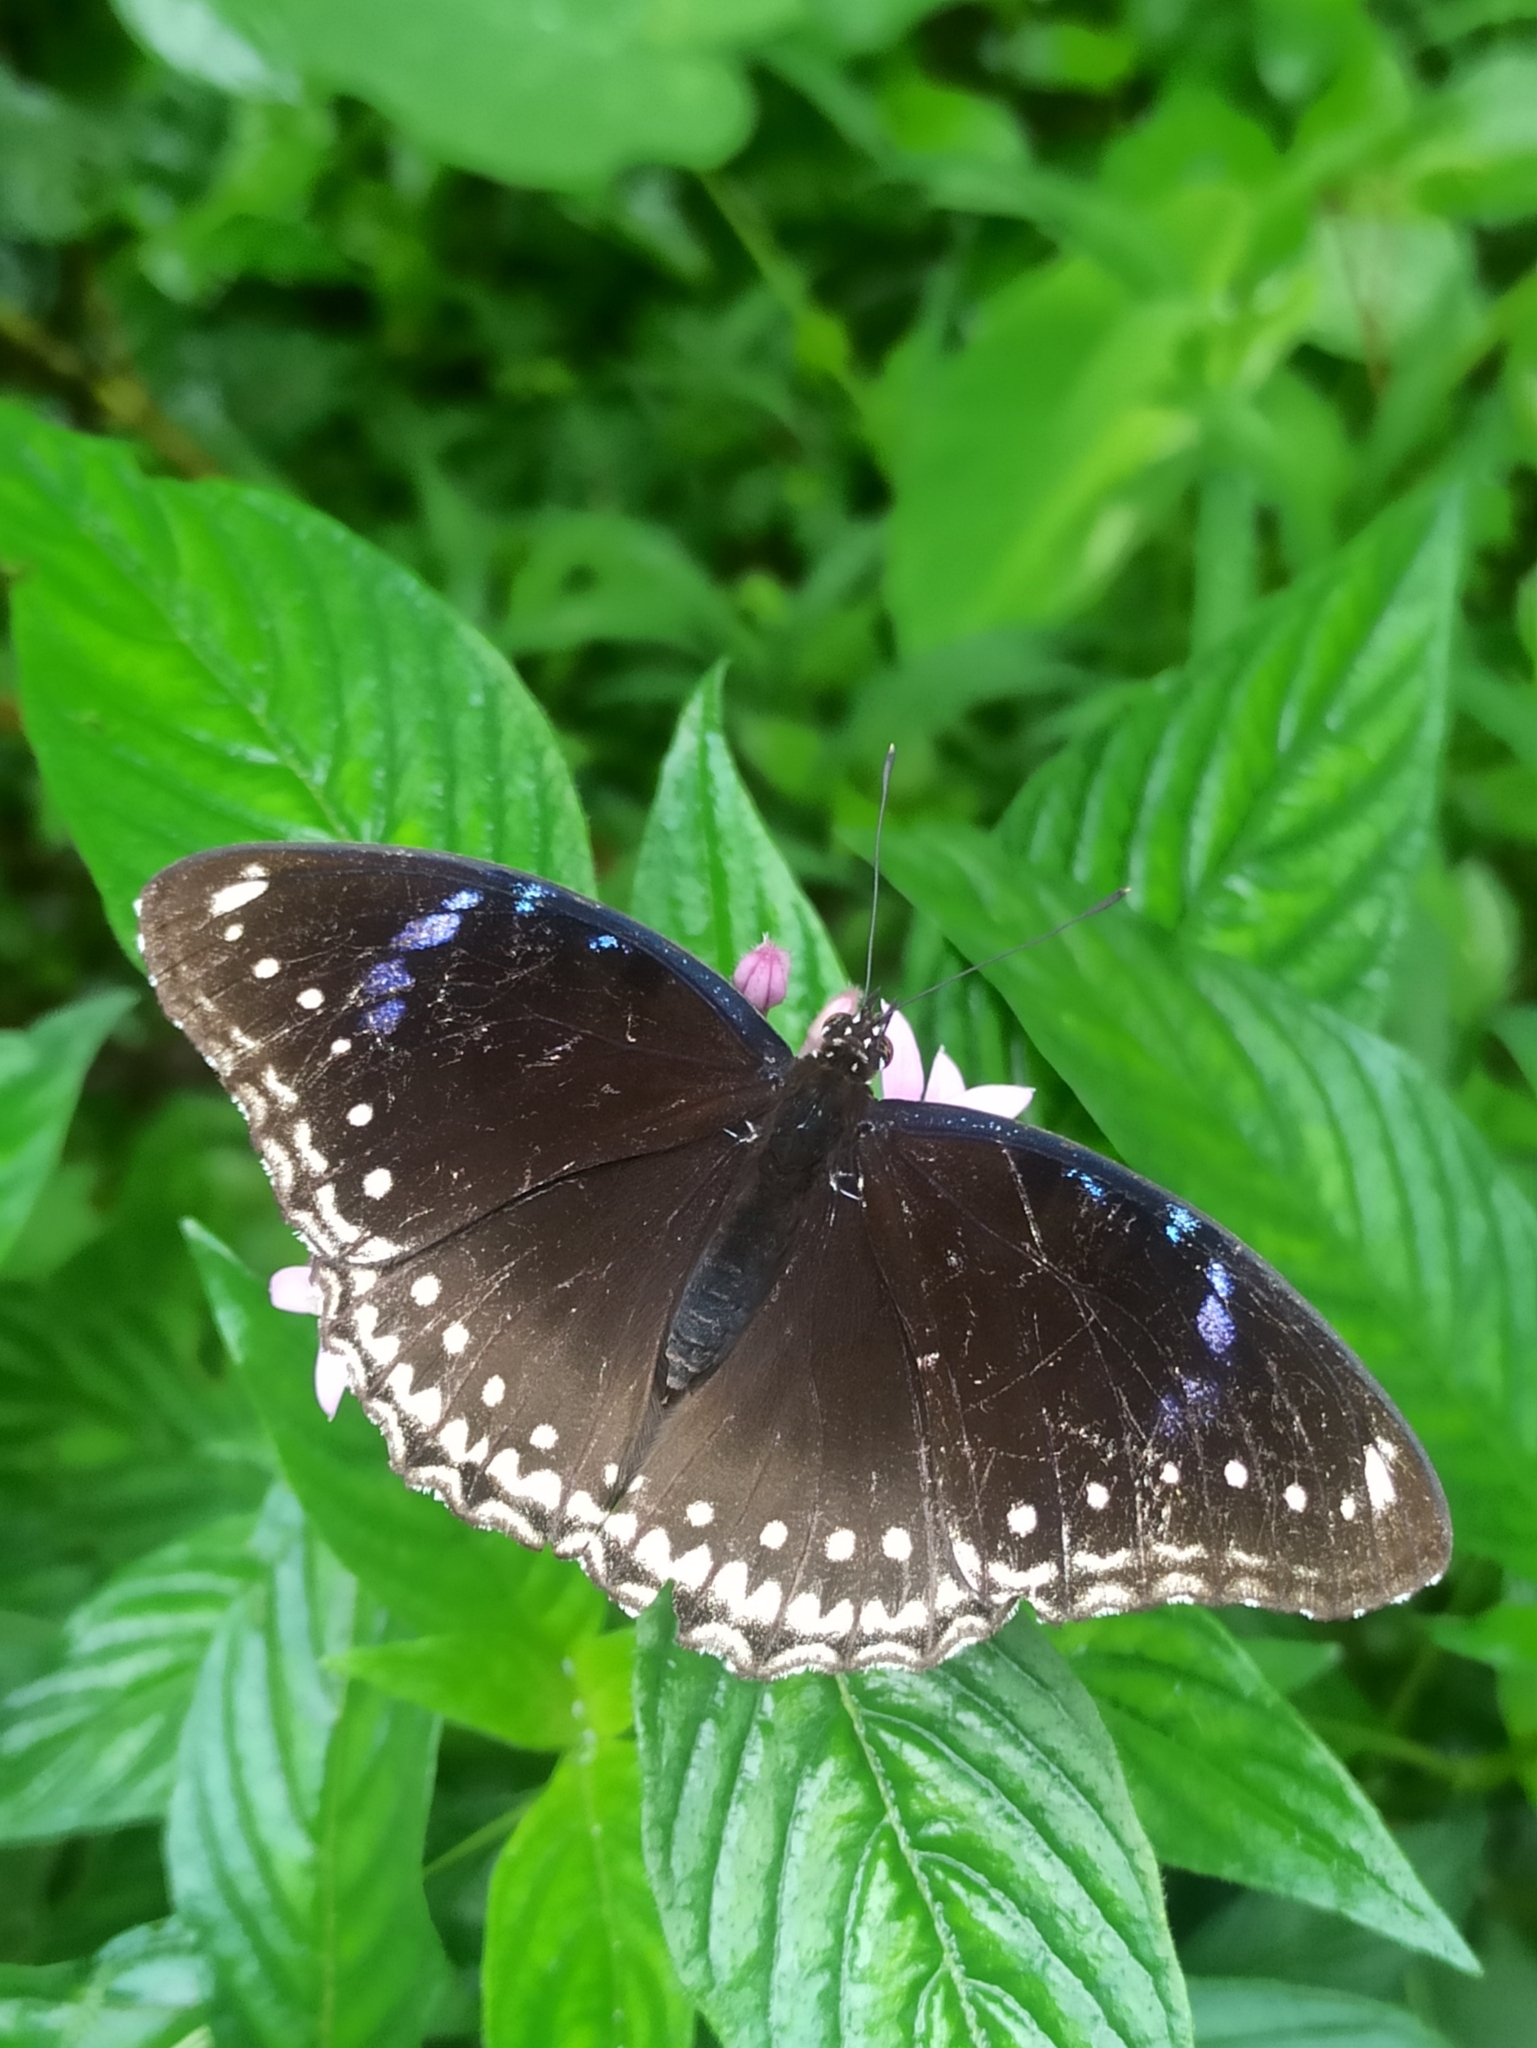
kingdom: Animalia
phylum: Arthropoda
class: Insecta
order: Lepidoptera
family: Nymphalidae
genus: Hypolimnas
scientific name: Hypolimnas bolina
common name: Great eggfly
